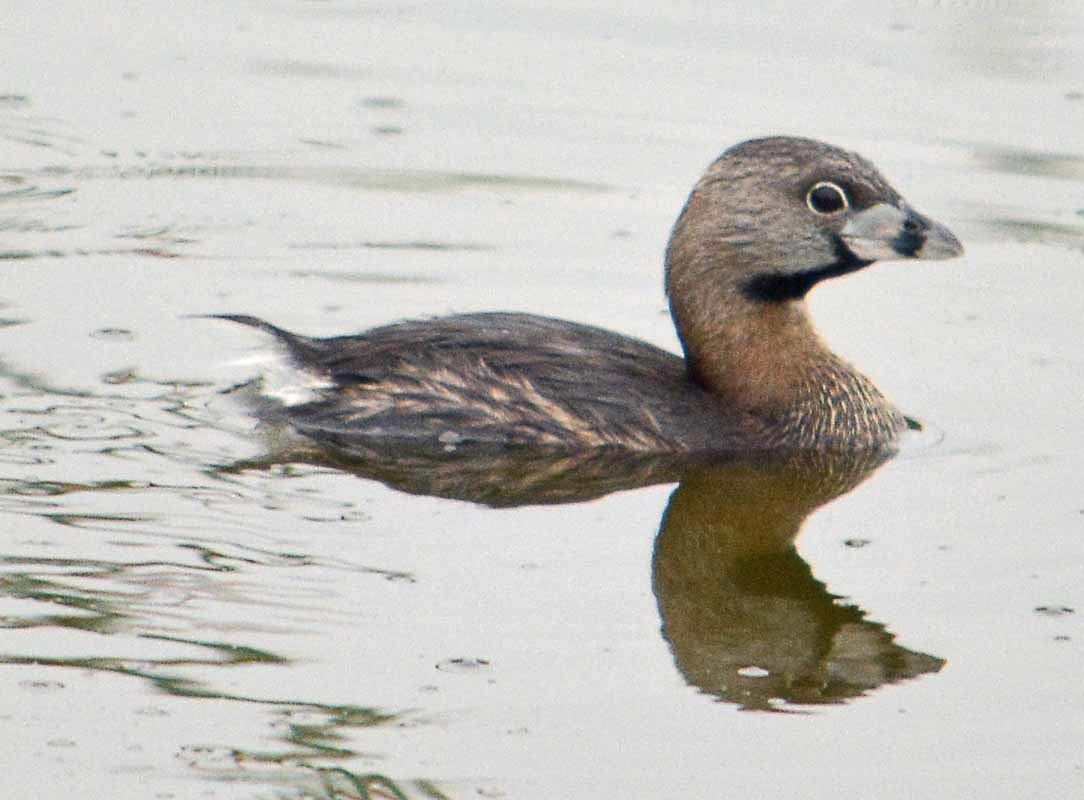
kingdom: Animalia
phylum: Chordata
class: Aves
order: Podicipediformes
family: Podicipedidae
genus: Podilymbus
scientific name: Podilymbus podiceps
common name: Pied-billed grebe
